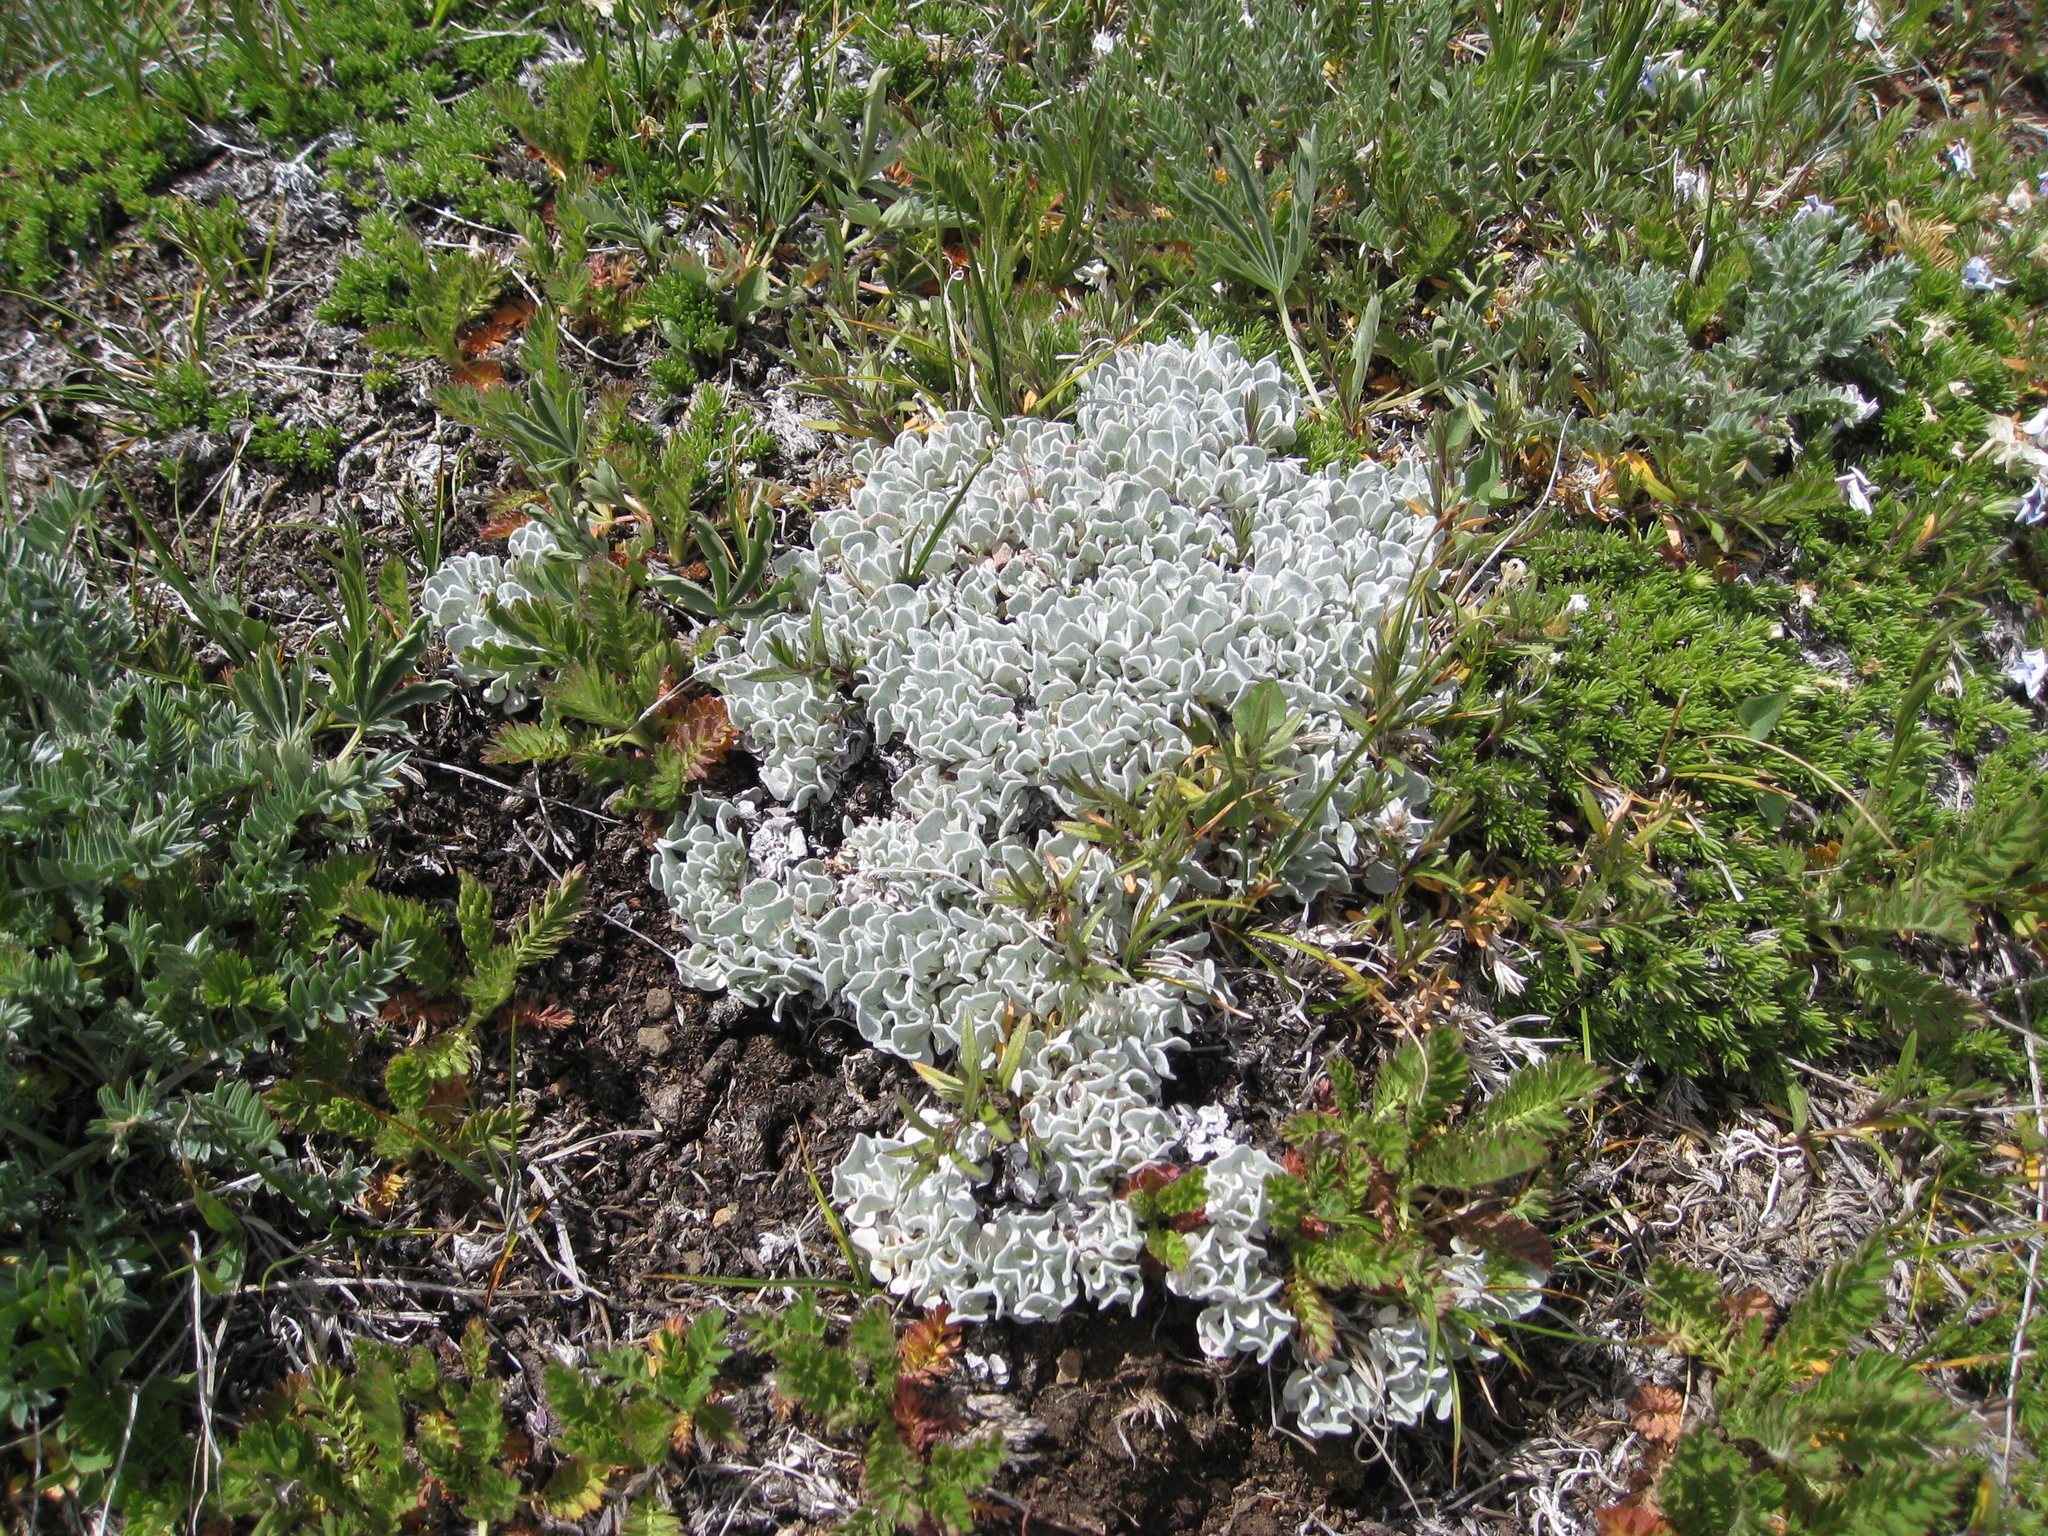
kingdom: Plantae
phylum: Tracheophyta
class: Magnoliopsida
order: Caryophyllales
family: Polygonaceae
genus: Eriogonum
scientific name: Eriogonum ovalifolium
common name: Cushion buckwheat
